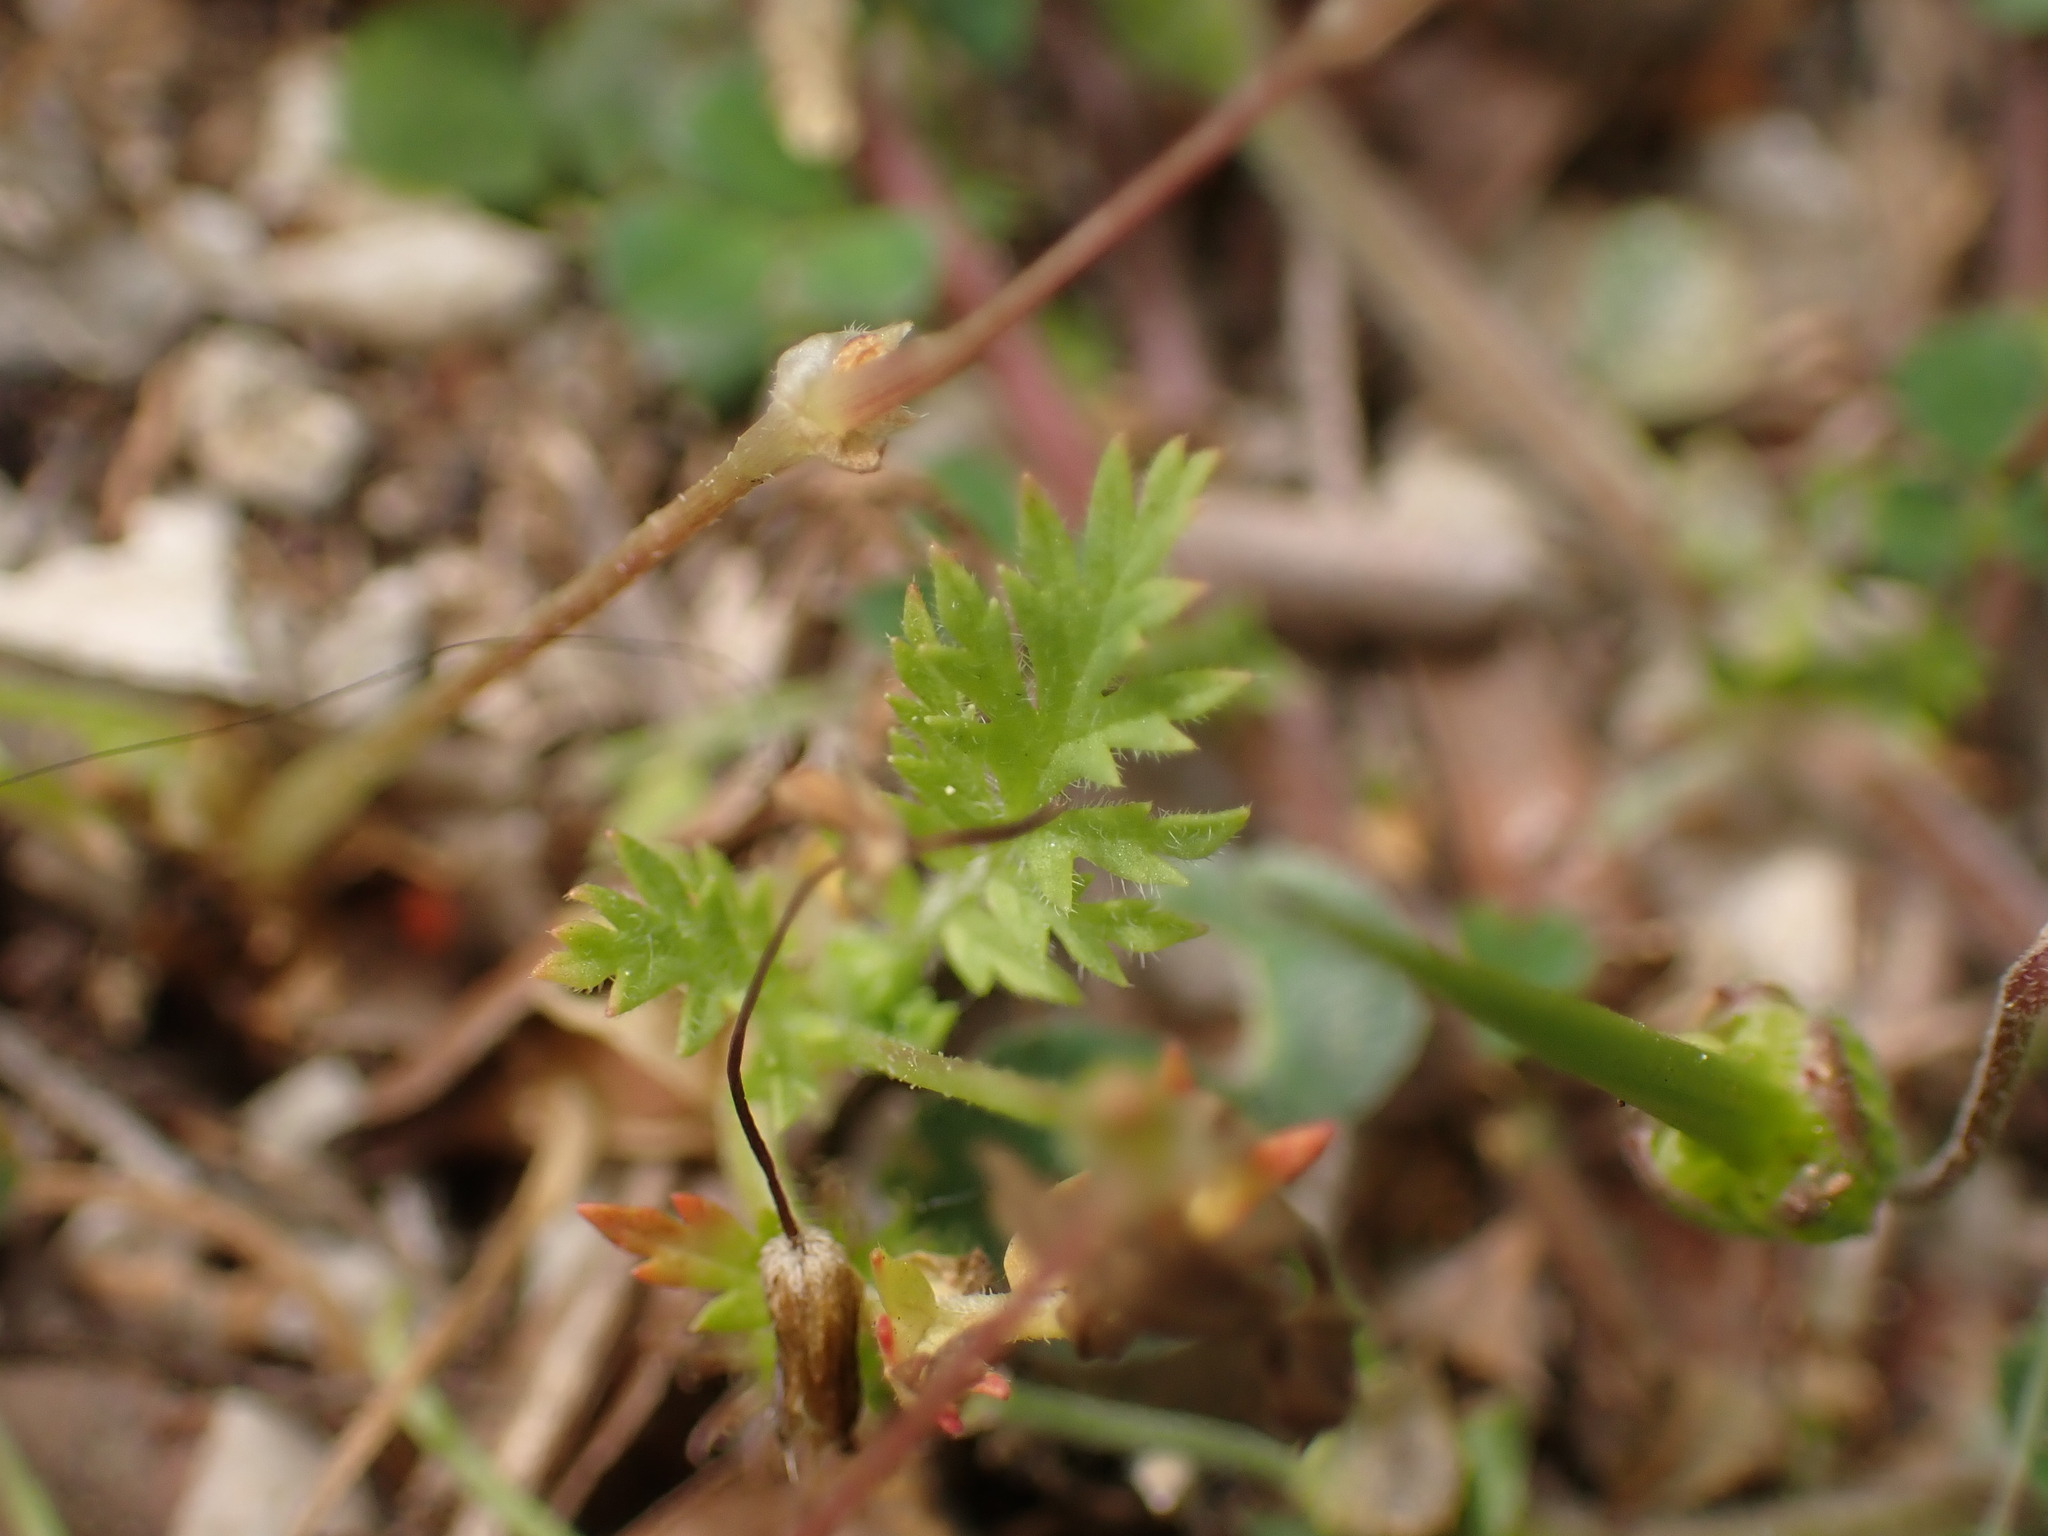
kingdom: Plantae
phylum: Tracheophyta
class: Magnoliopsida
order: Geraniales
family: Geraniaceae
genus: Erodium
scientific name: Erodium cicutarium
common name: Common stork's-bill
